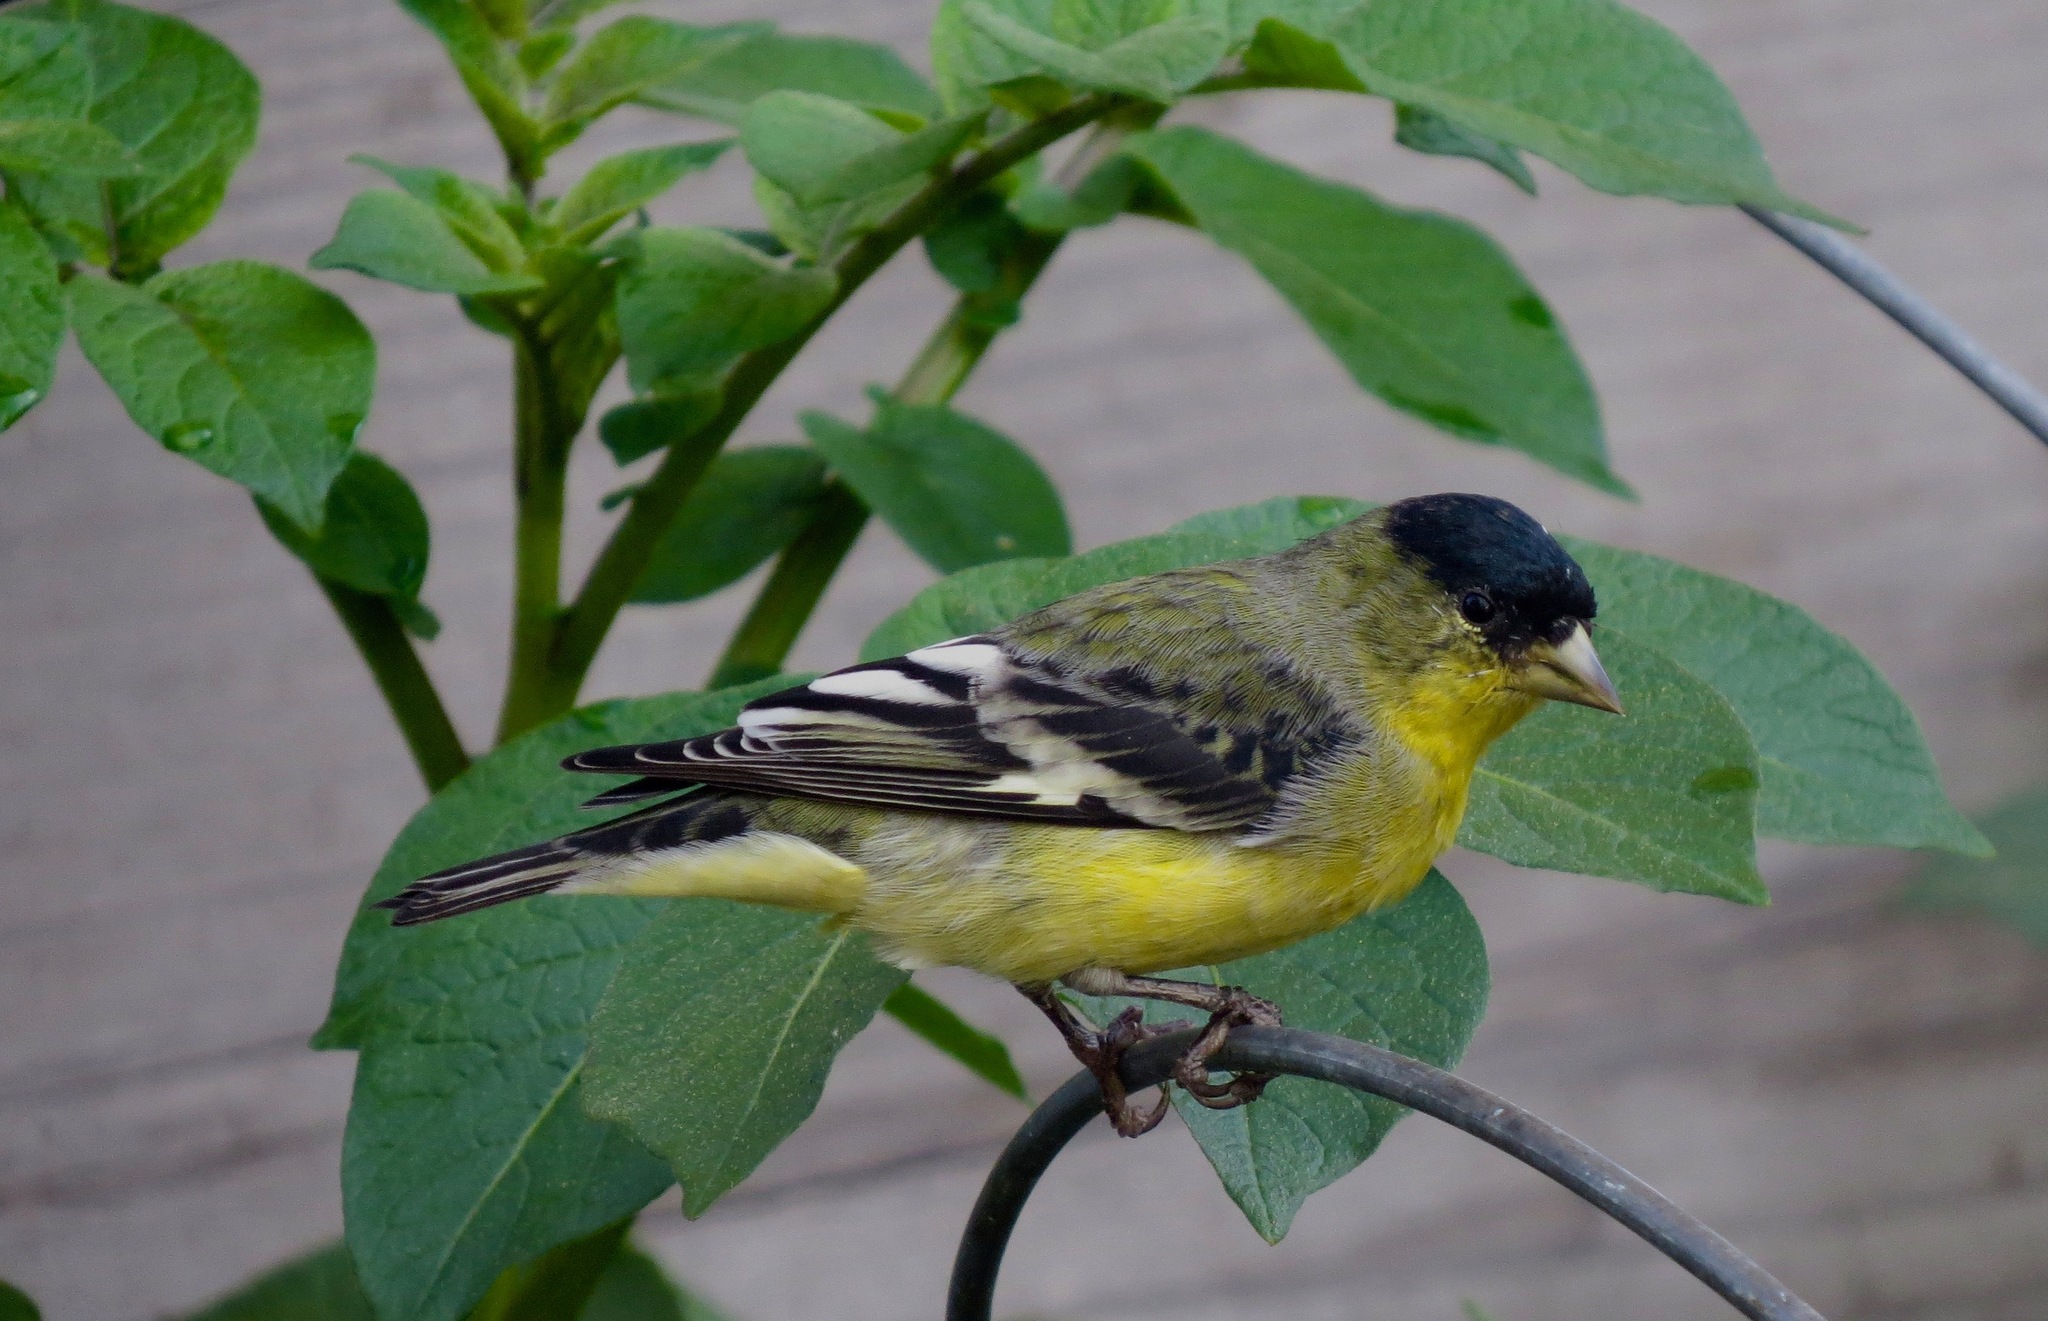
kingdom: Animalia
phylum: Chordata
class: Aves
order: Passeriformes
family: Fringillidae
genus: Spinus
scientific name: Spinus psaltria
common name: Lesser goldfinch
